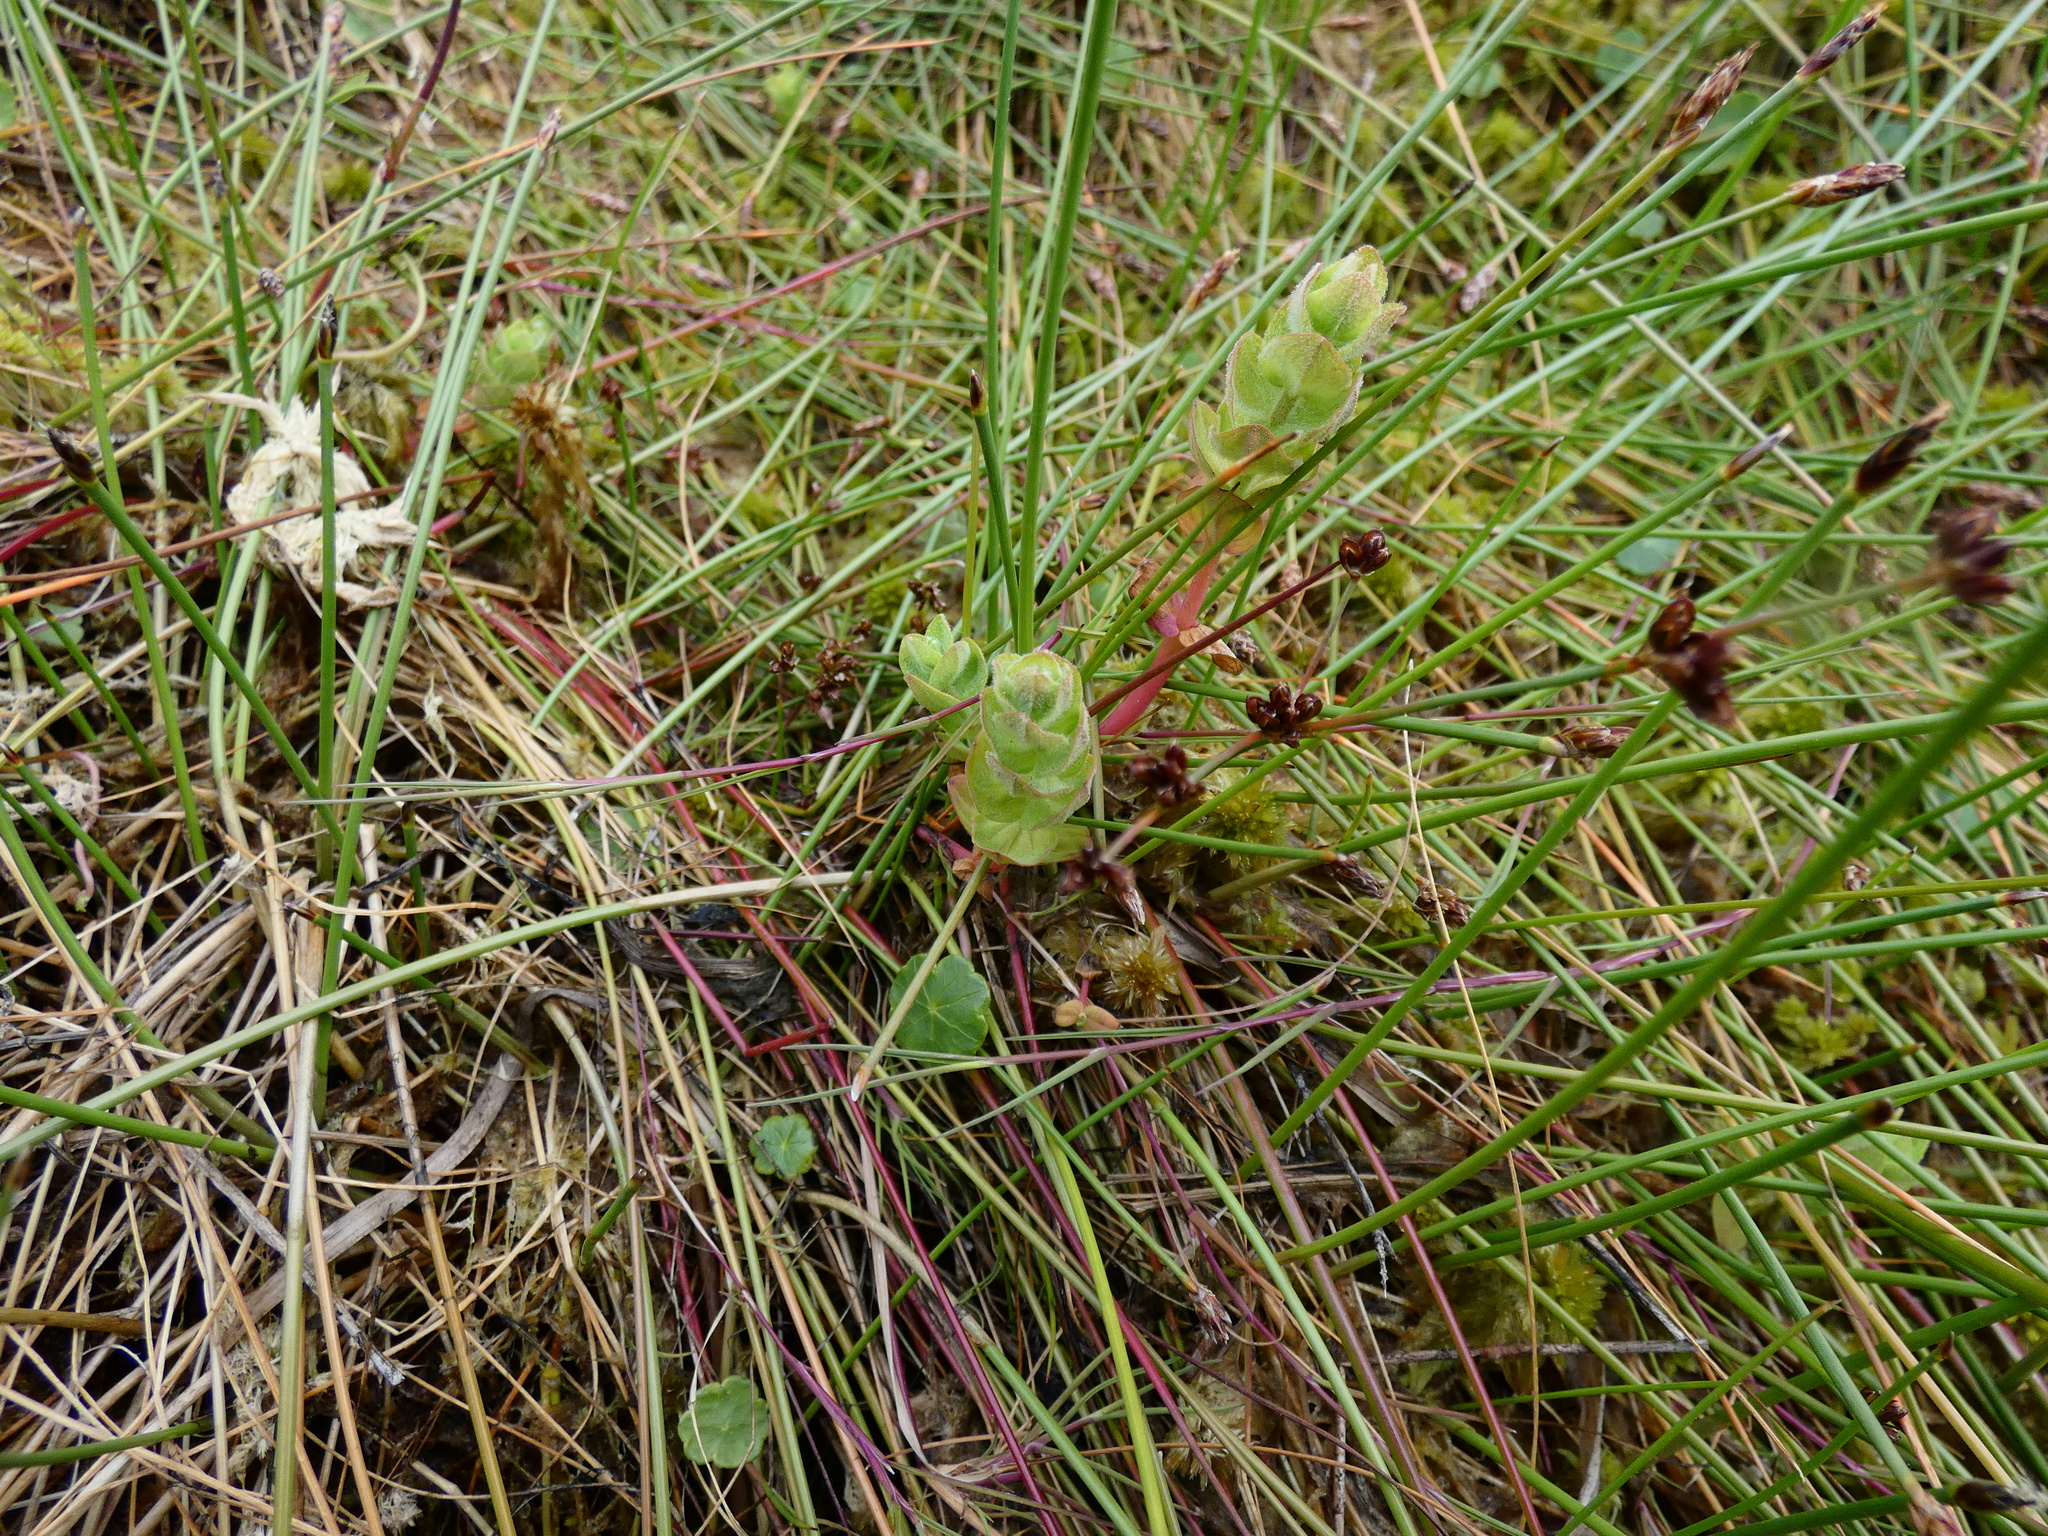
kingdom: Plantae
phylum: Tracheophyta
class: Magnoliopsida
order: Malpighiales
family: Hypericaceae
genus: Hypericum
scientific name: Hypericum elodes
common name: Marsh st. john's-wort
